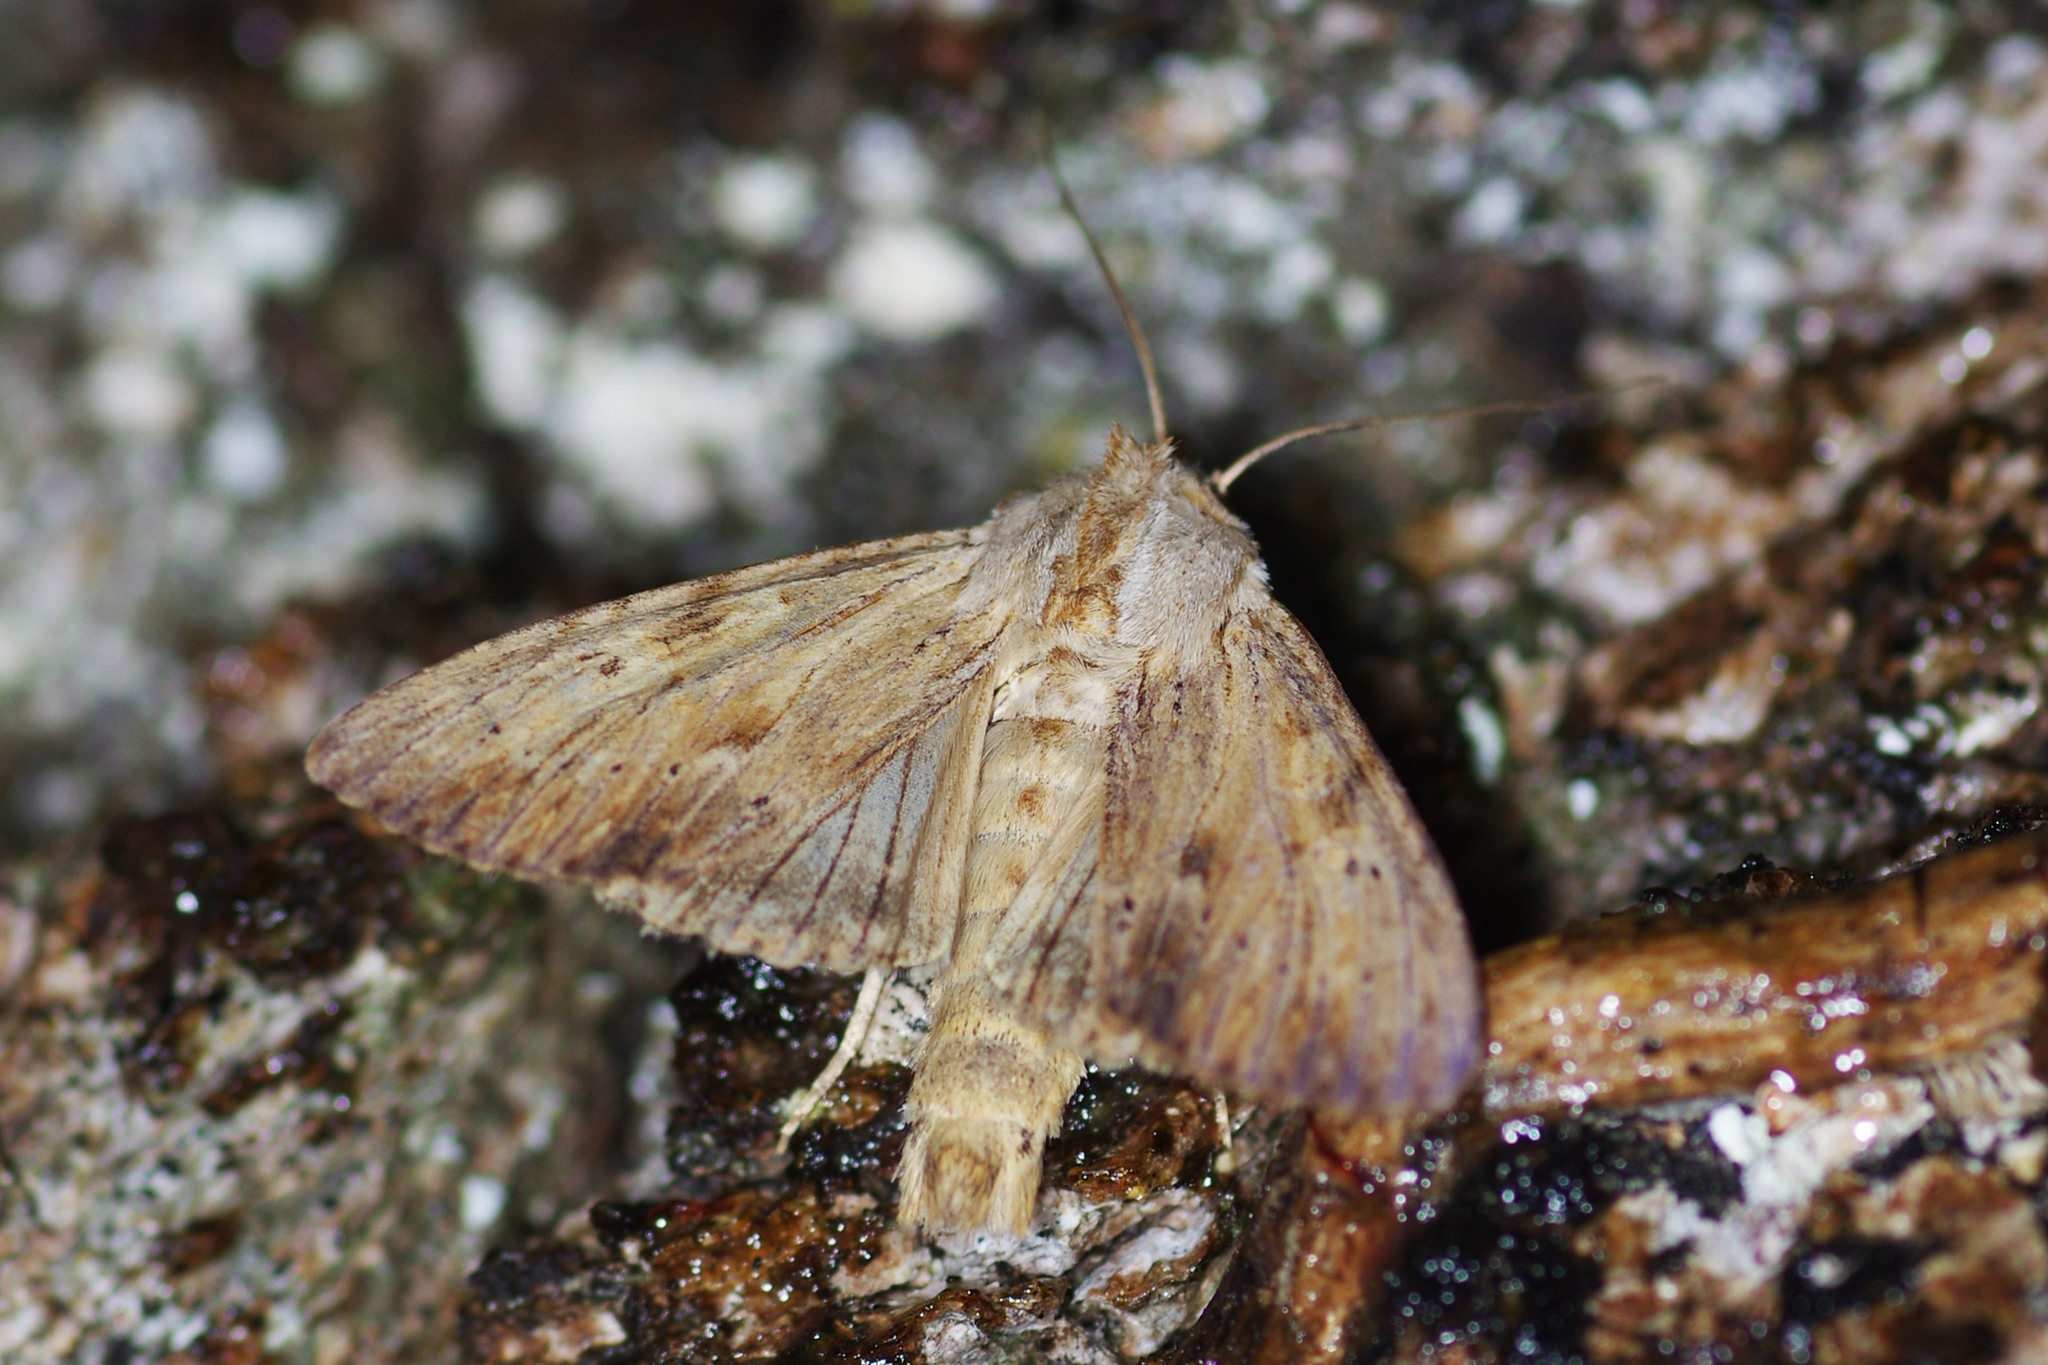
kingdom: Animalia
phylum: Arthropoda
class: Insecta
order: Lepidoptera
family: Noctuidae
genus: Apamea
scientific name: Apamea lithoxylaea
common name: Light arches
